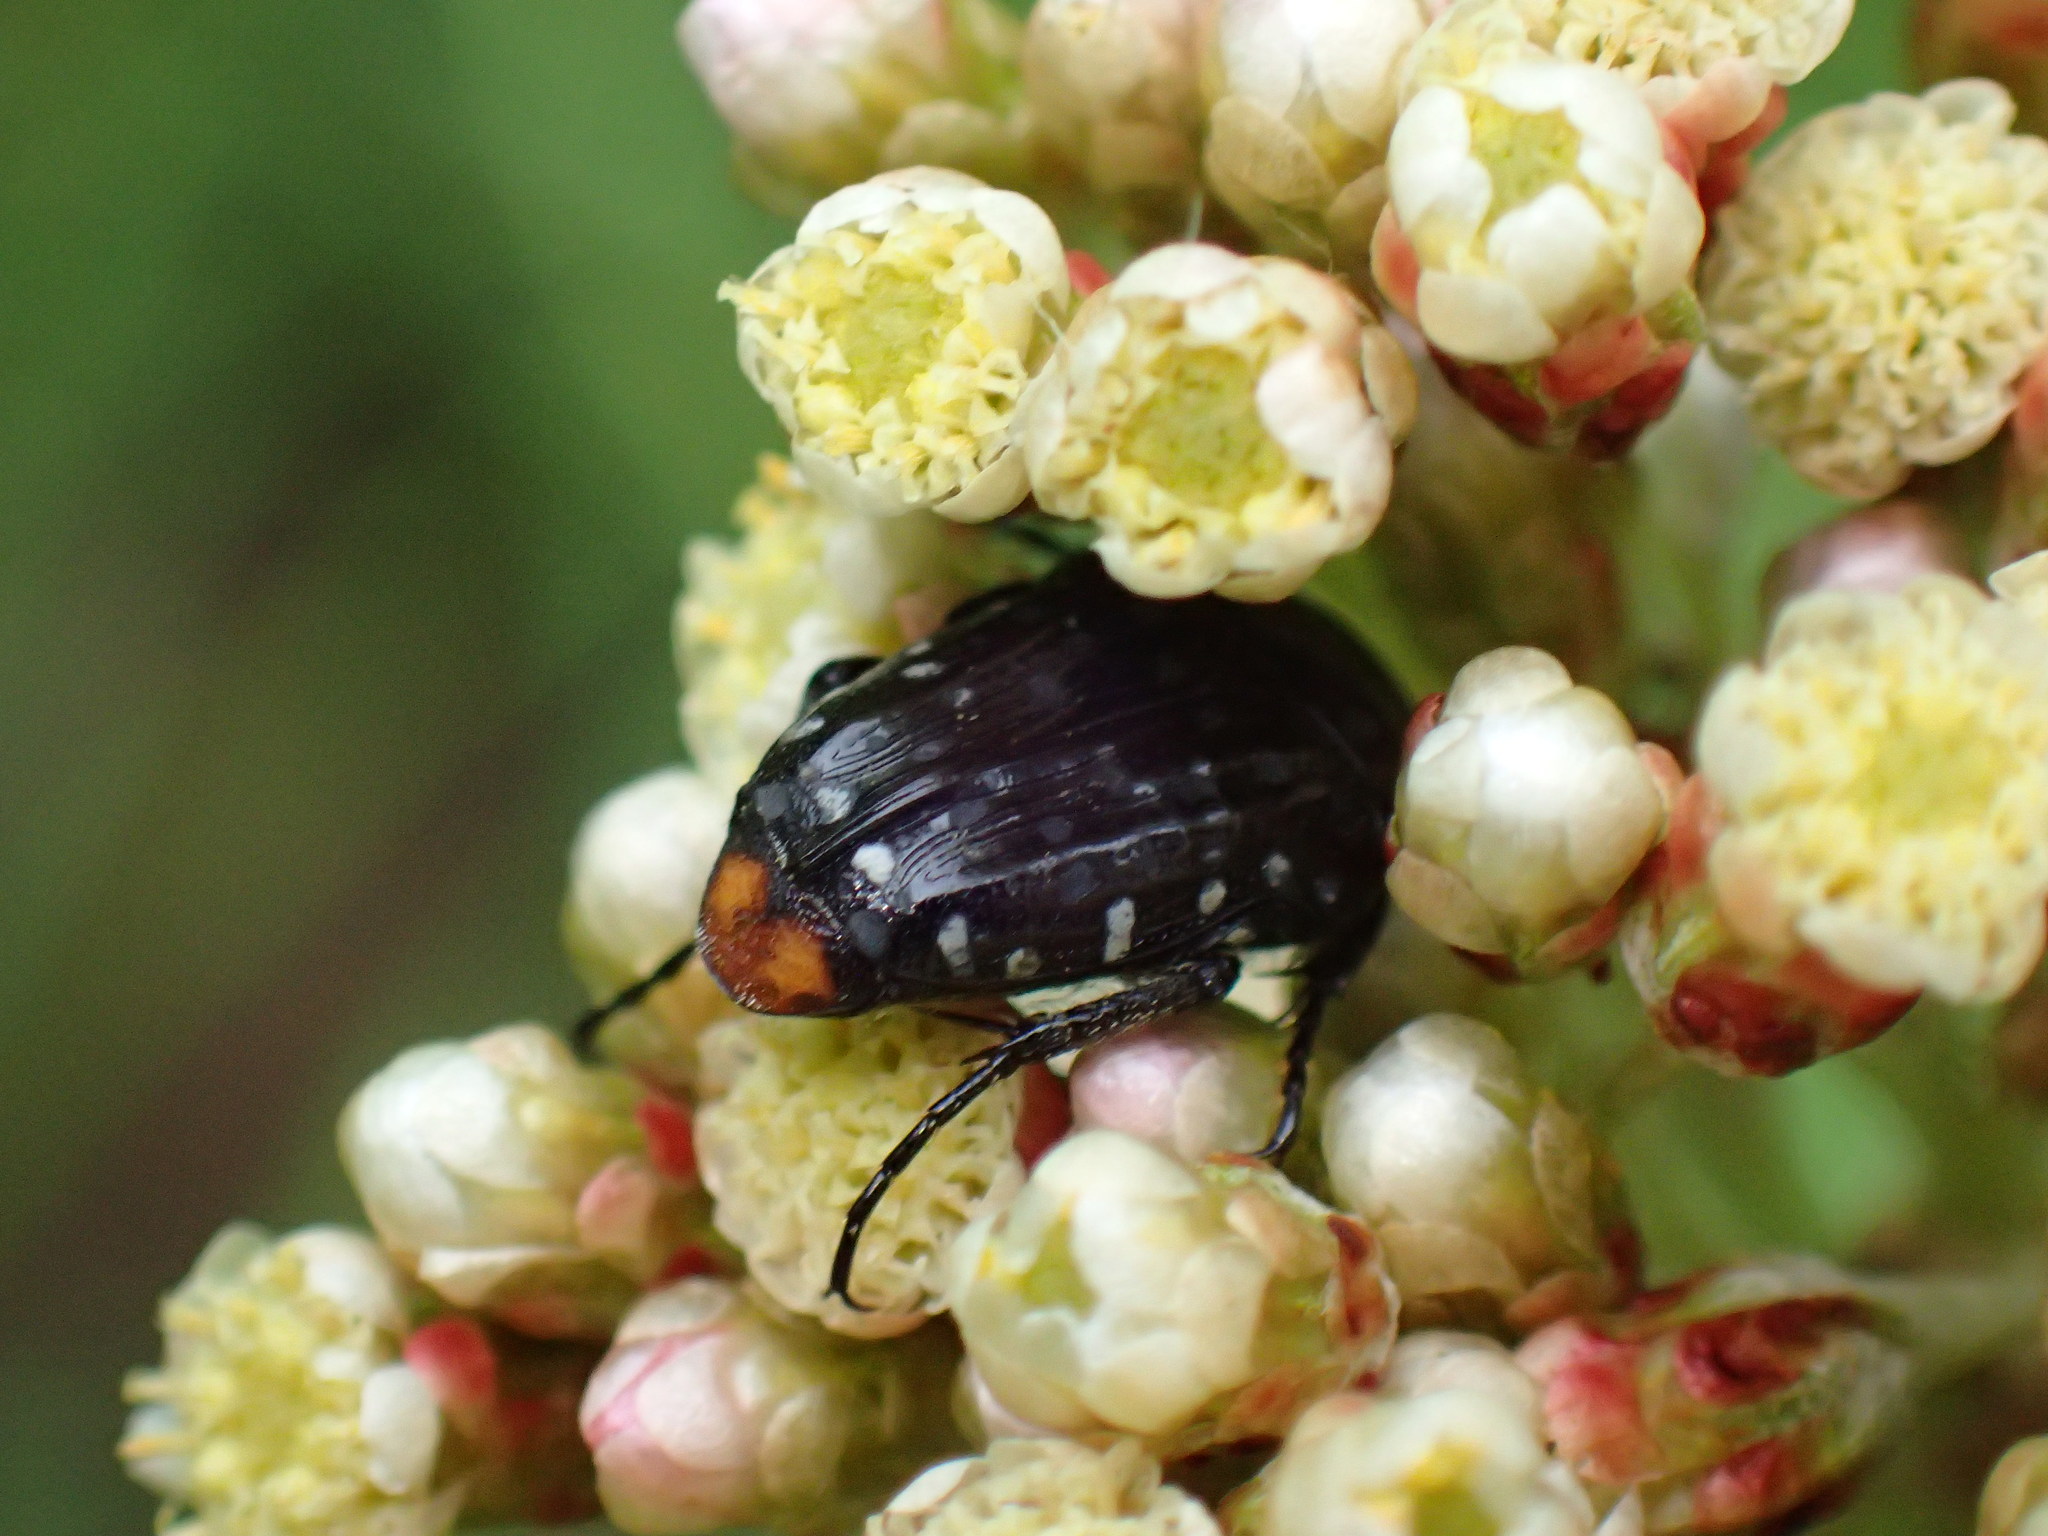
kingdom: Animalia
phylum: Arthropoda
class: Insecta
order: Coleoptera
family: Scarabaeidae
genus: Oxythyrea
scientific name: Oxythyrea
